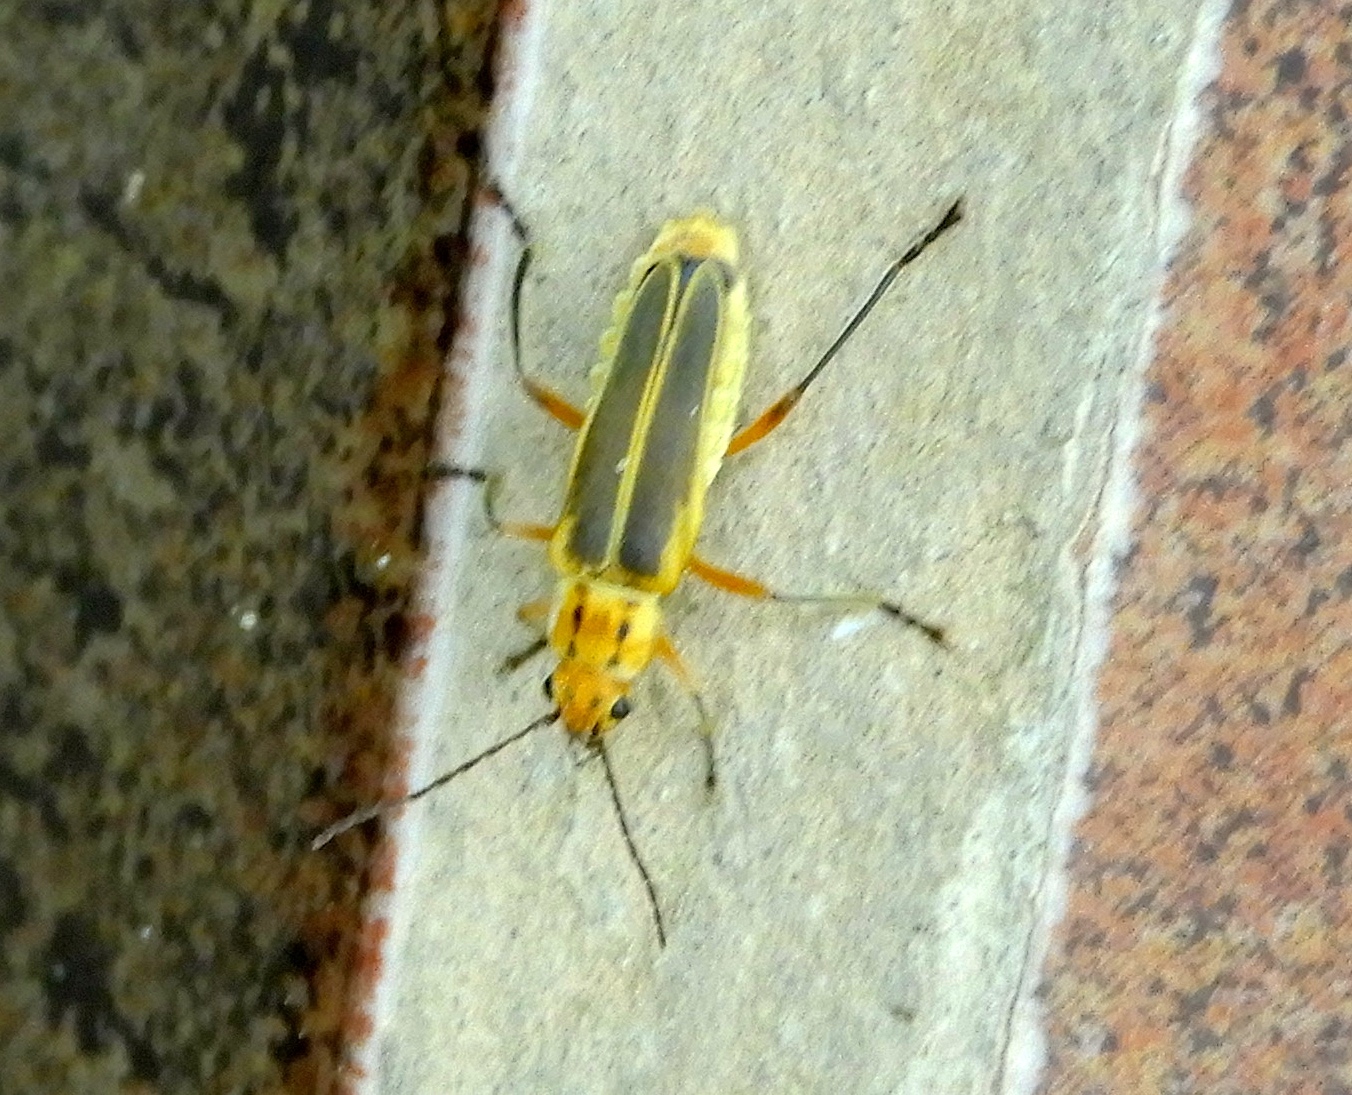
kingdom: Animalia
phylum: Arthropoda
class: Insecta
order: Coleoptera
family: Cantharidae
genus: Chauliognathus
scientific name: Chauliognathus
